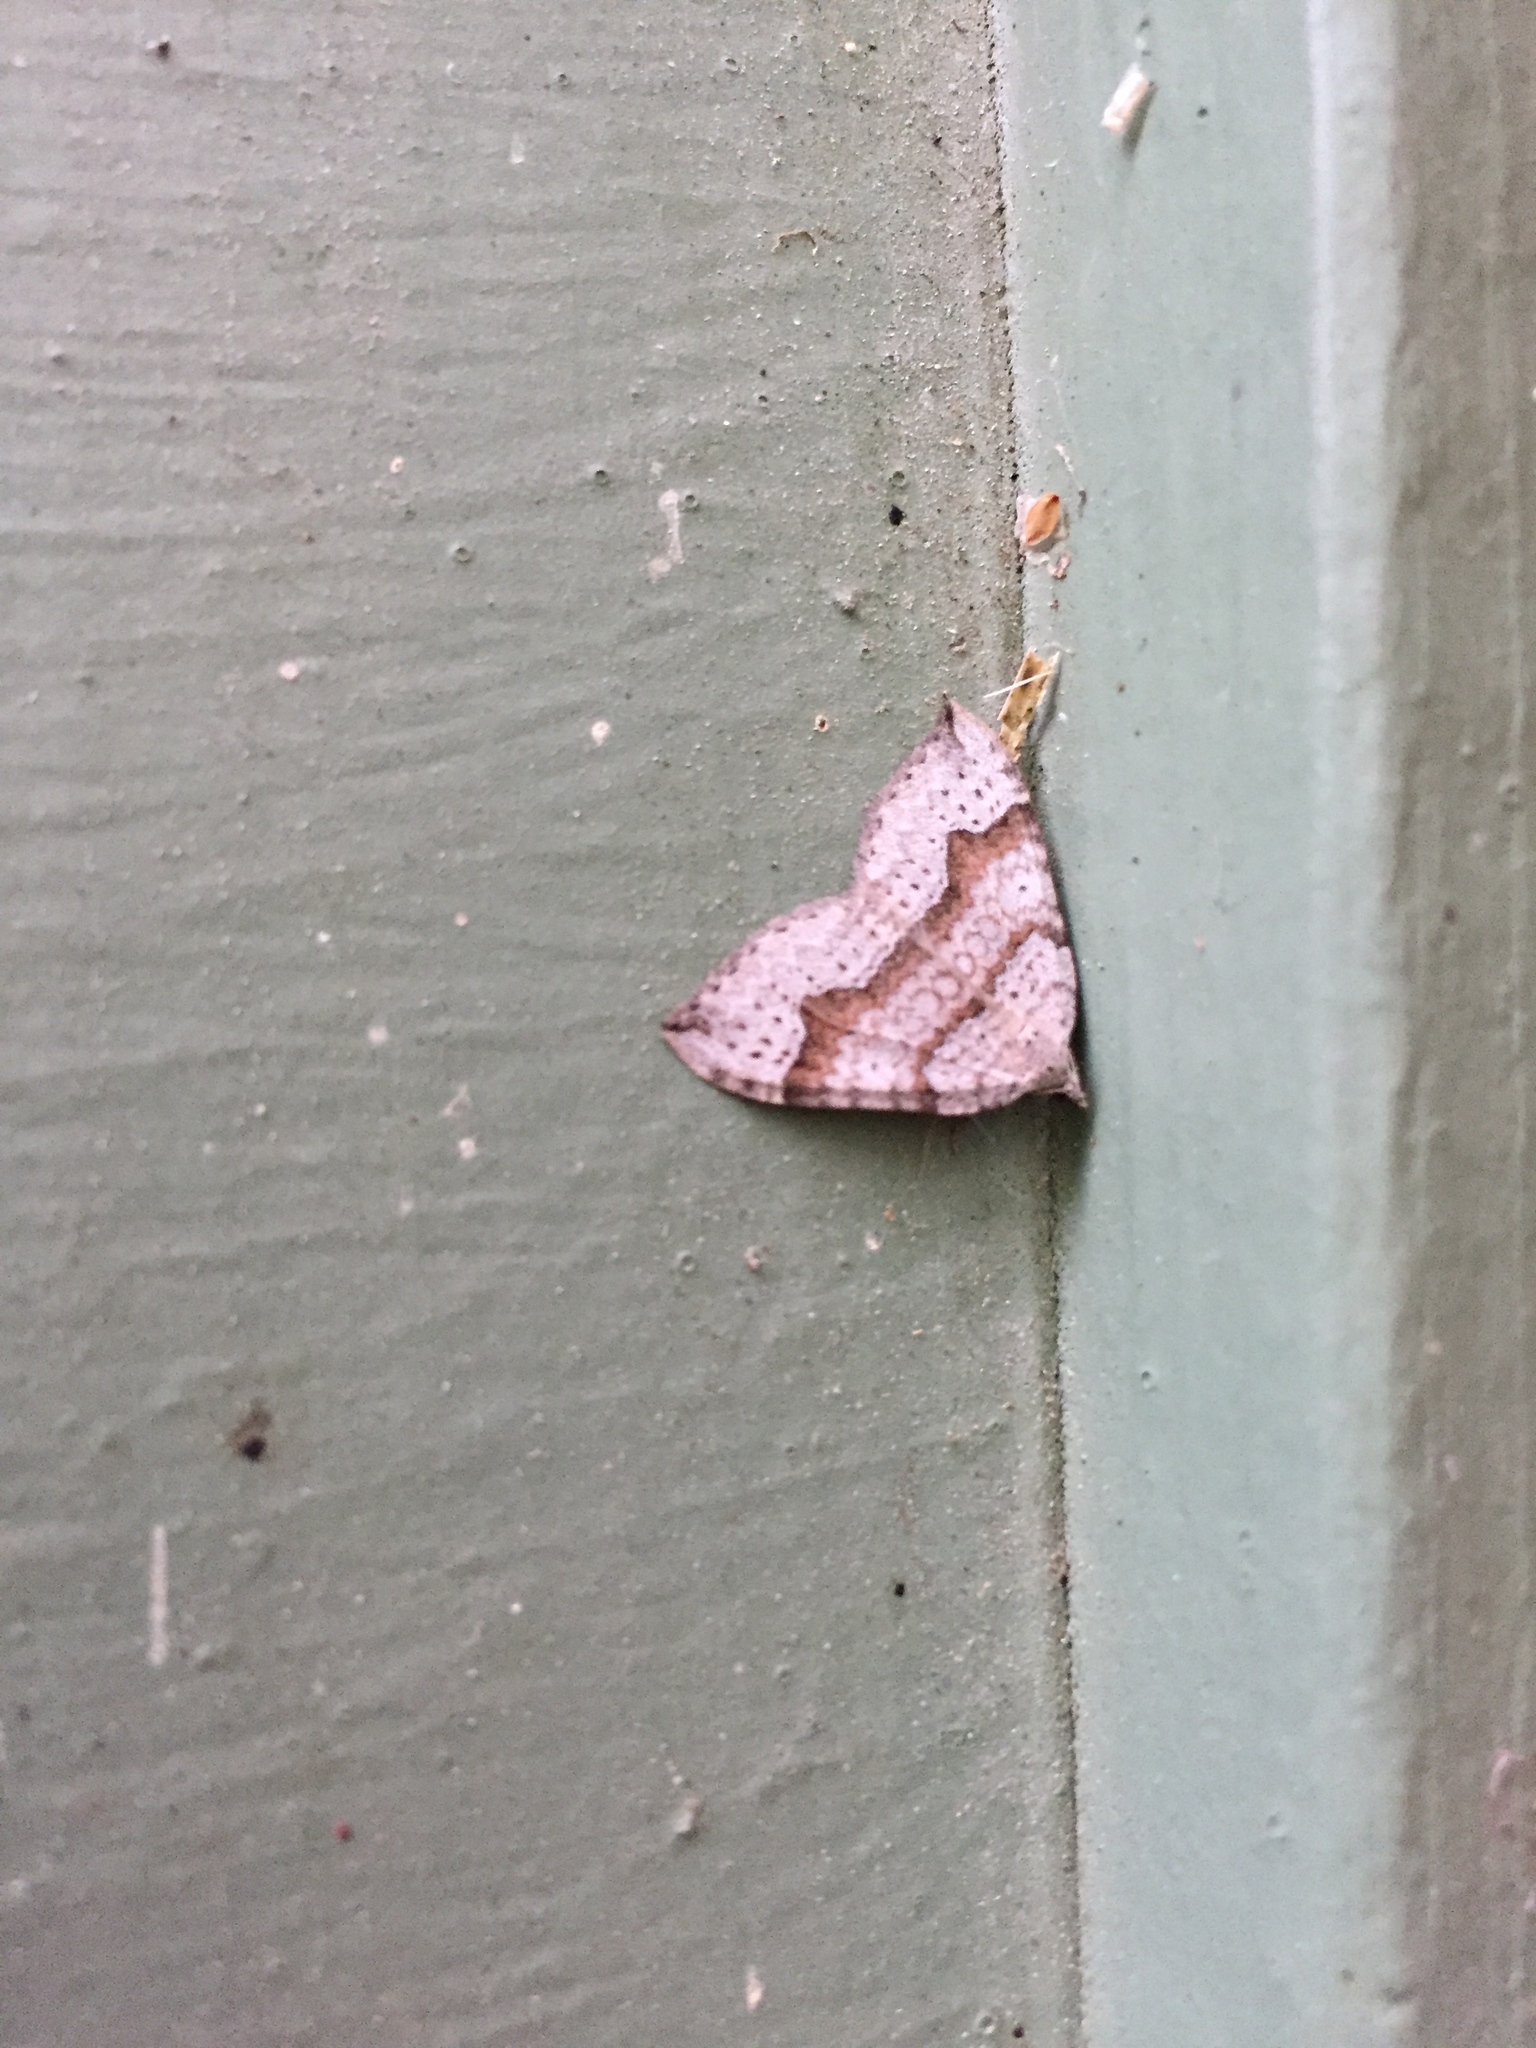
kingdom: Animalia
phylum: Arthropoda
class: Insecta
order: Lepidoptera
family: Geometridae
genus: Zenophleps
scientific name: Zenophleps alpinata
